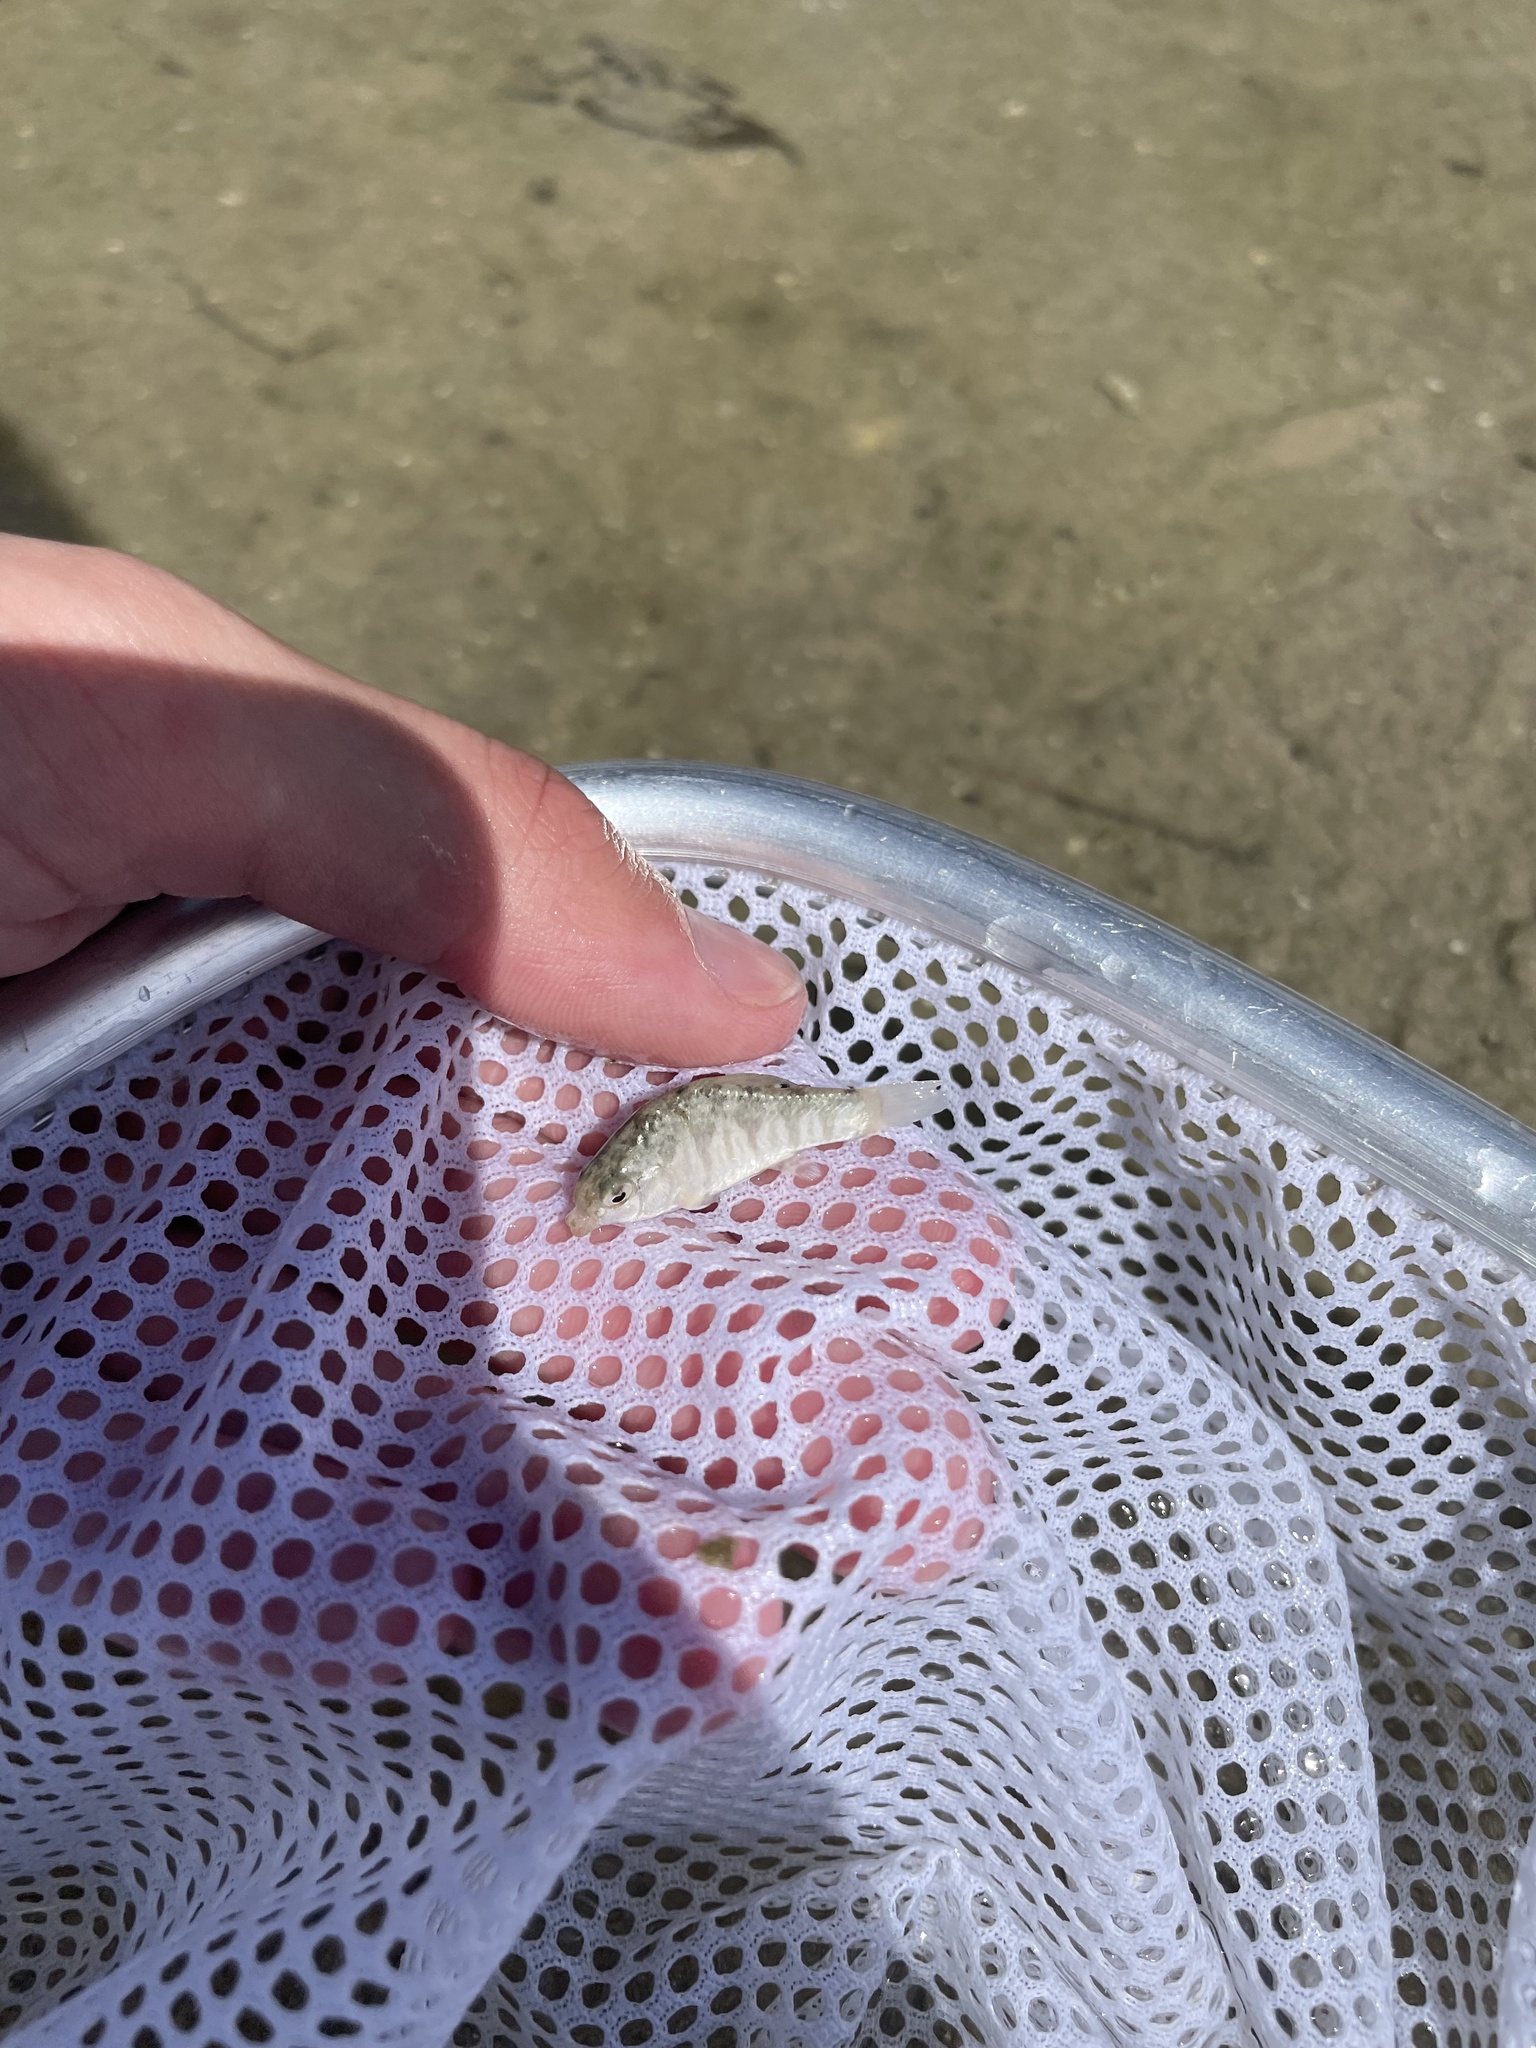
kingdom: Animalia
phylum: Chordata
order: Cyprinodontiformes
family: Cyprinodontidae
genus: Cyprinodon
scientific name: Cyprinodon variegatus
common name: Sheepshead minnow
